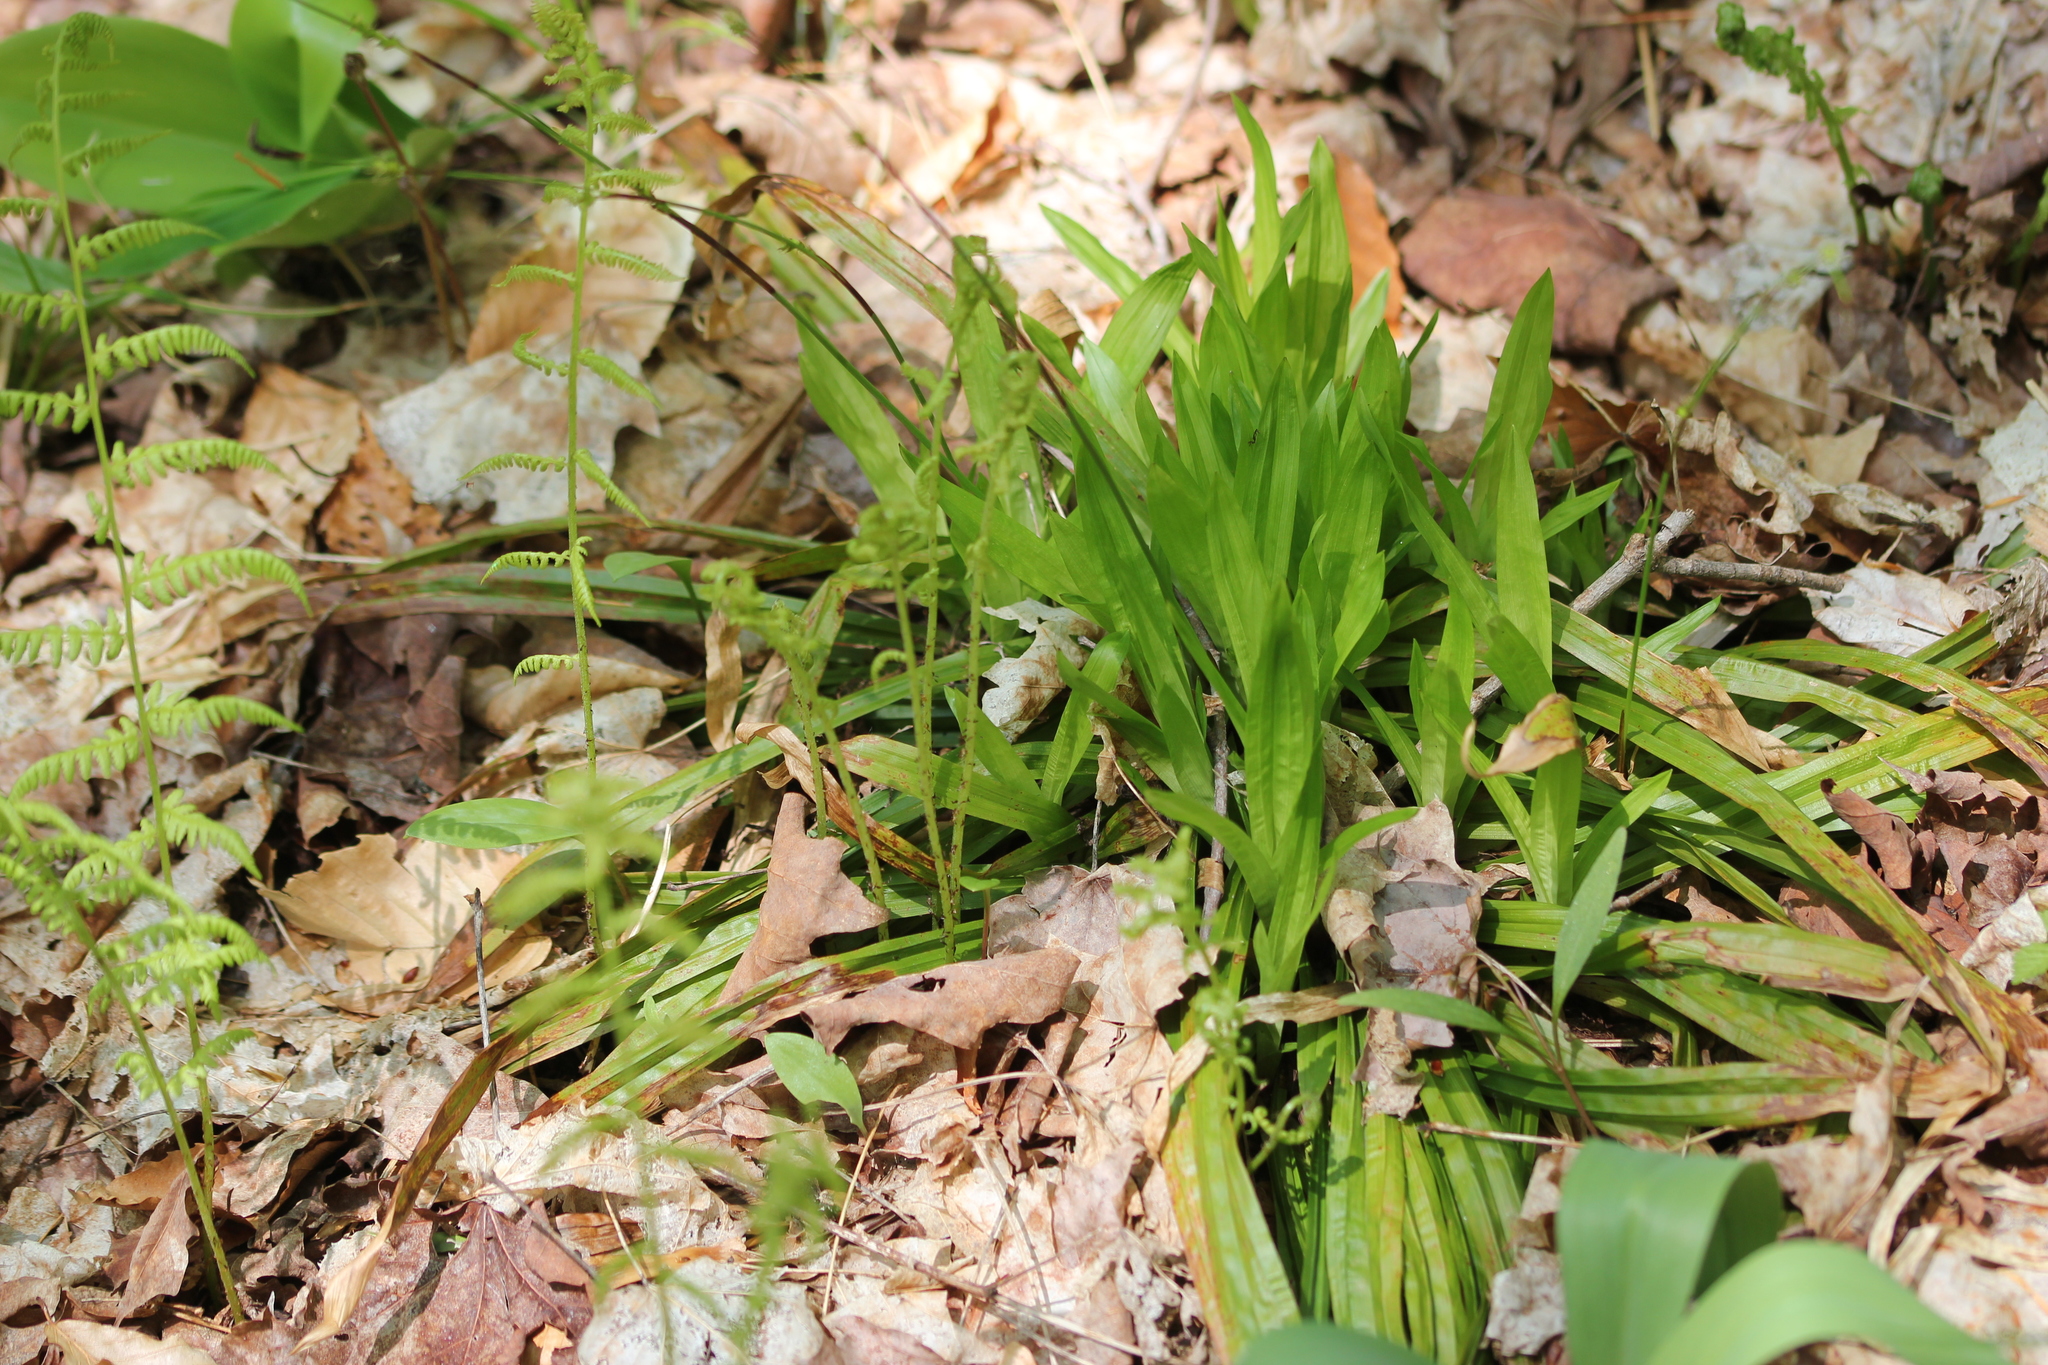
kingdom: Plantae
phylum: Tracheophyta
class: Liliopsida
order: Poales
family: Cyperaceae
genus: Carex
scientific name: Carex plantaginea
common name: Plantain-leaved sedge
